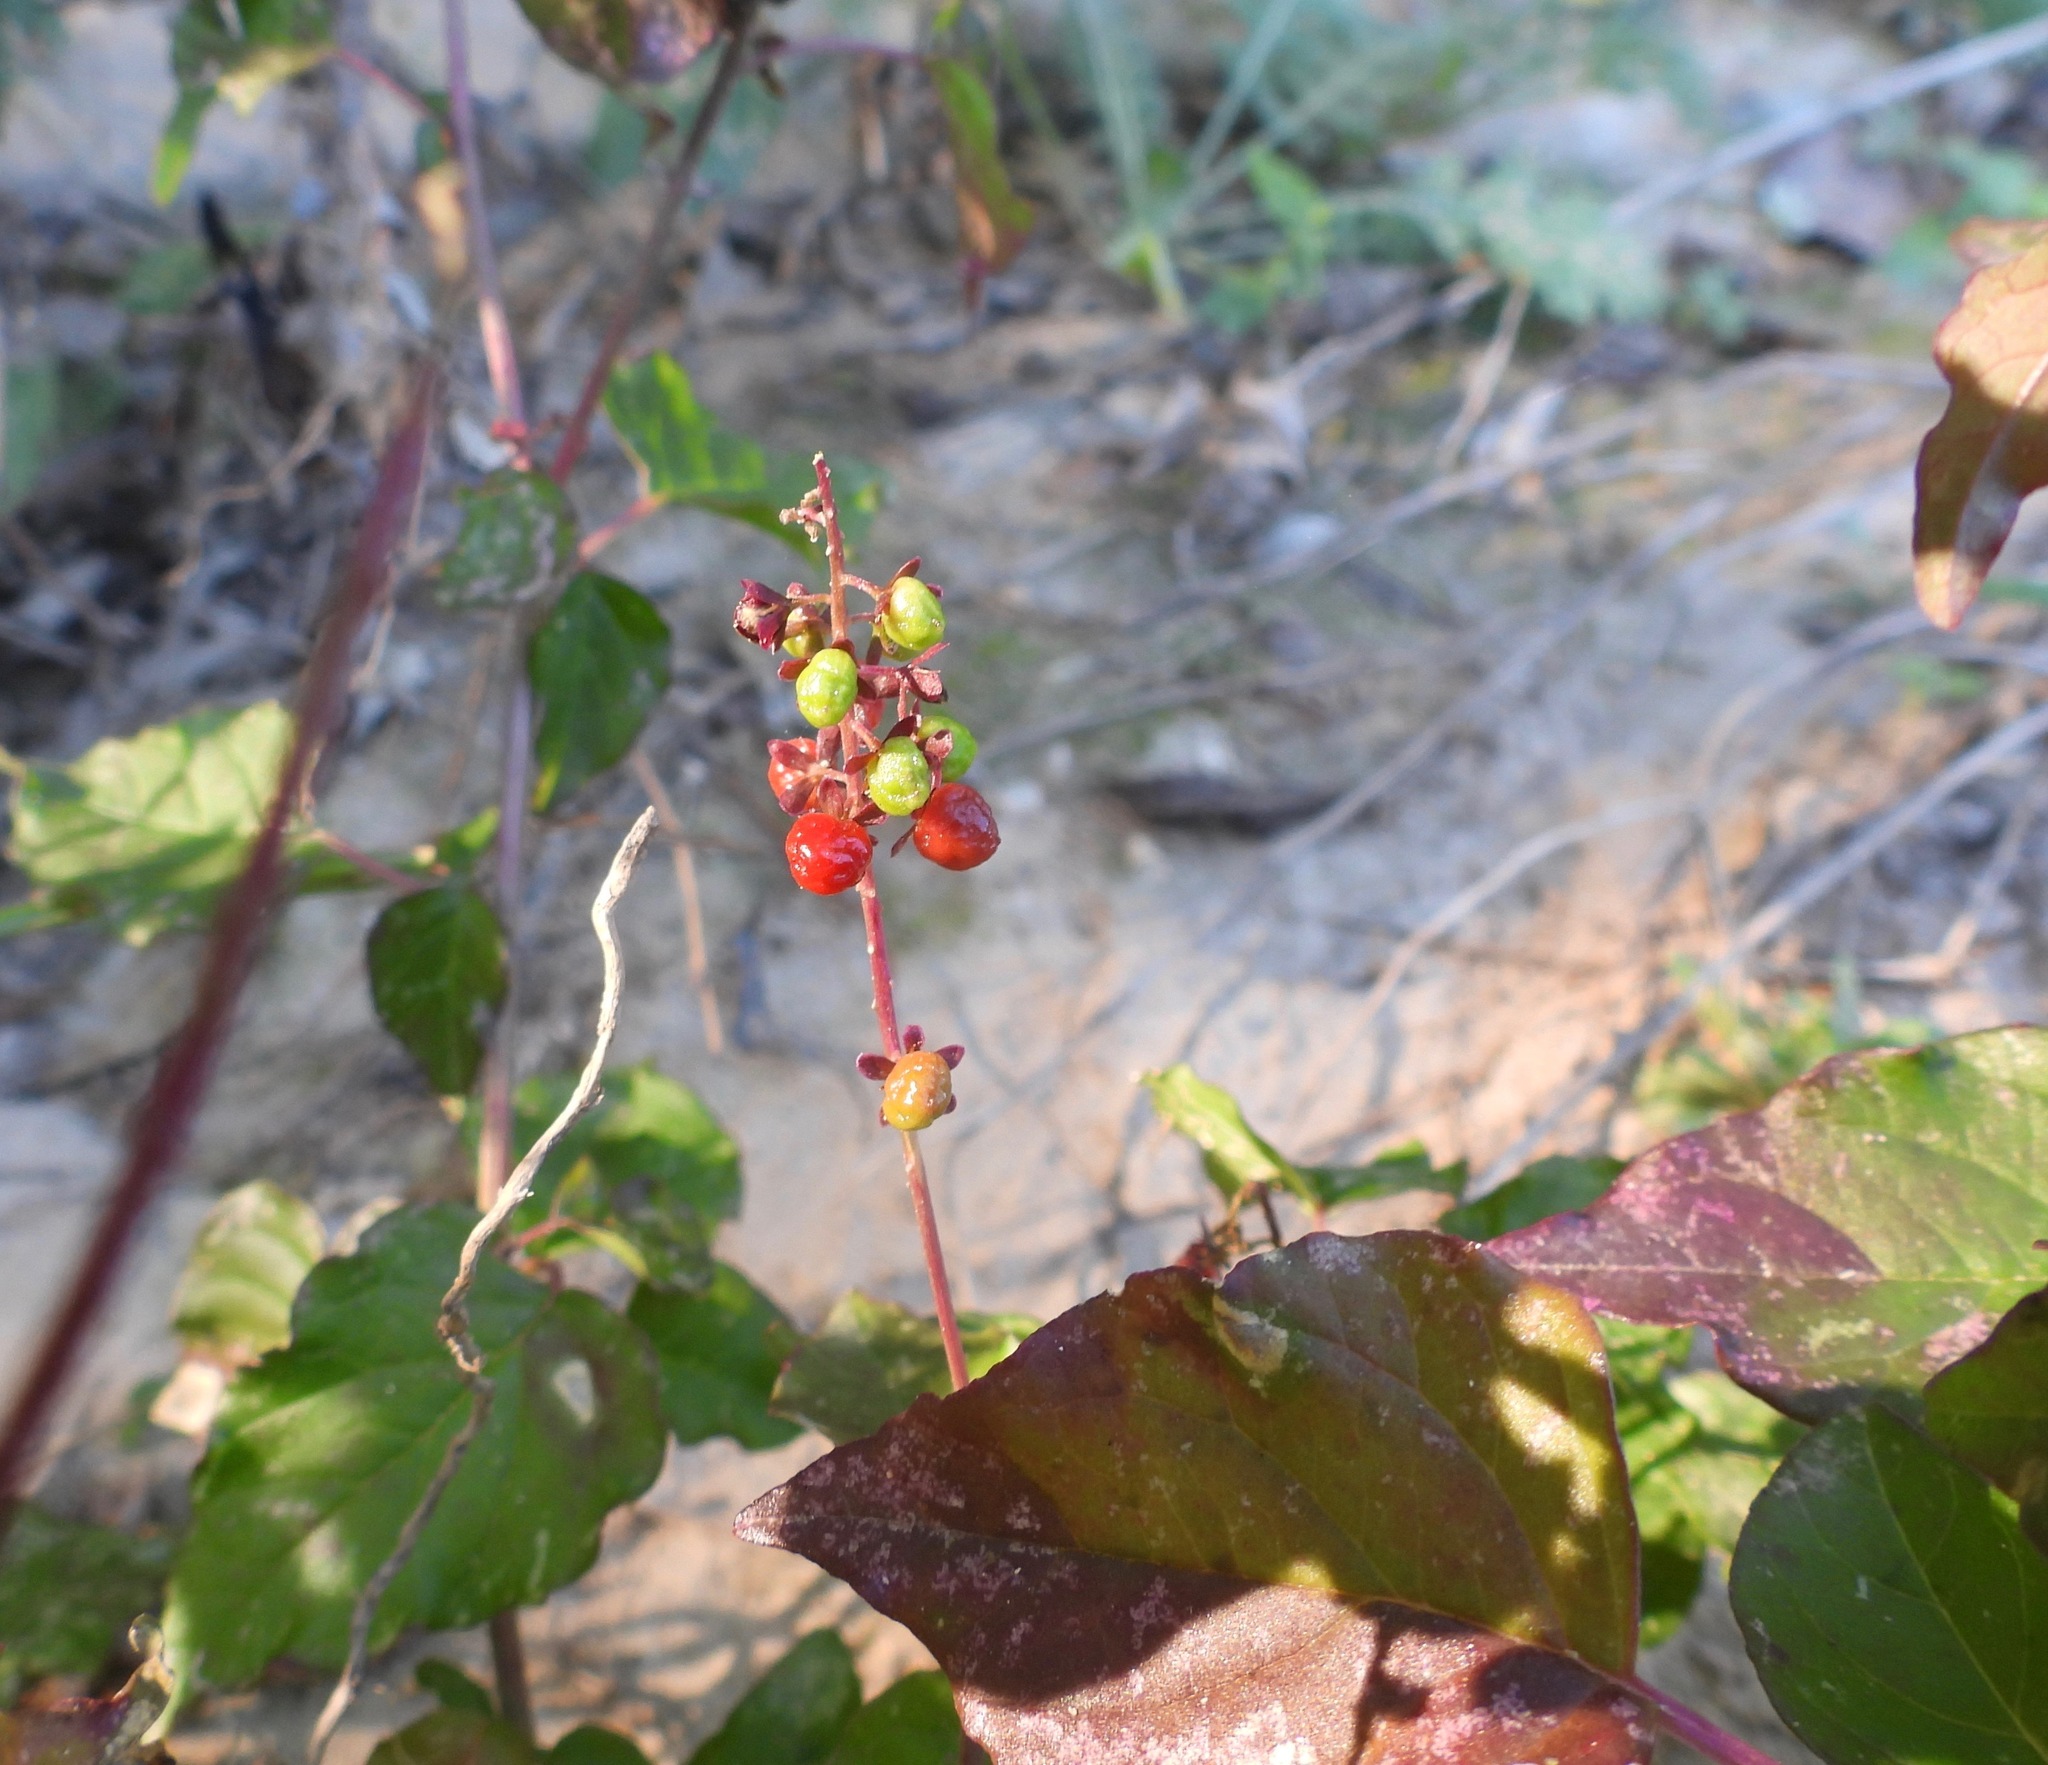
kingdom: Plantae
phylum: Tracheophyta
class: Magnoliopsida
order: Caryophyllales
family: Phytolaccaceae
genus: Rivina
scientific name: Rivina humilis
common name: Rougeplant
